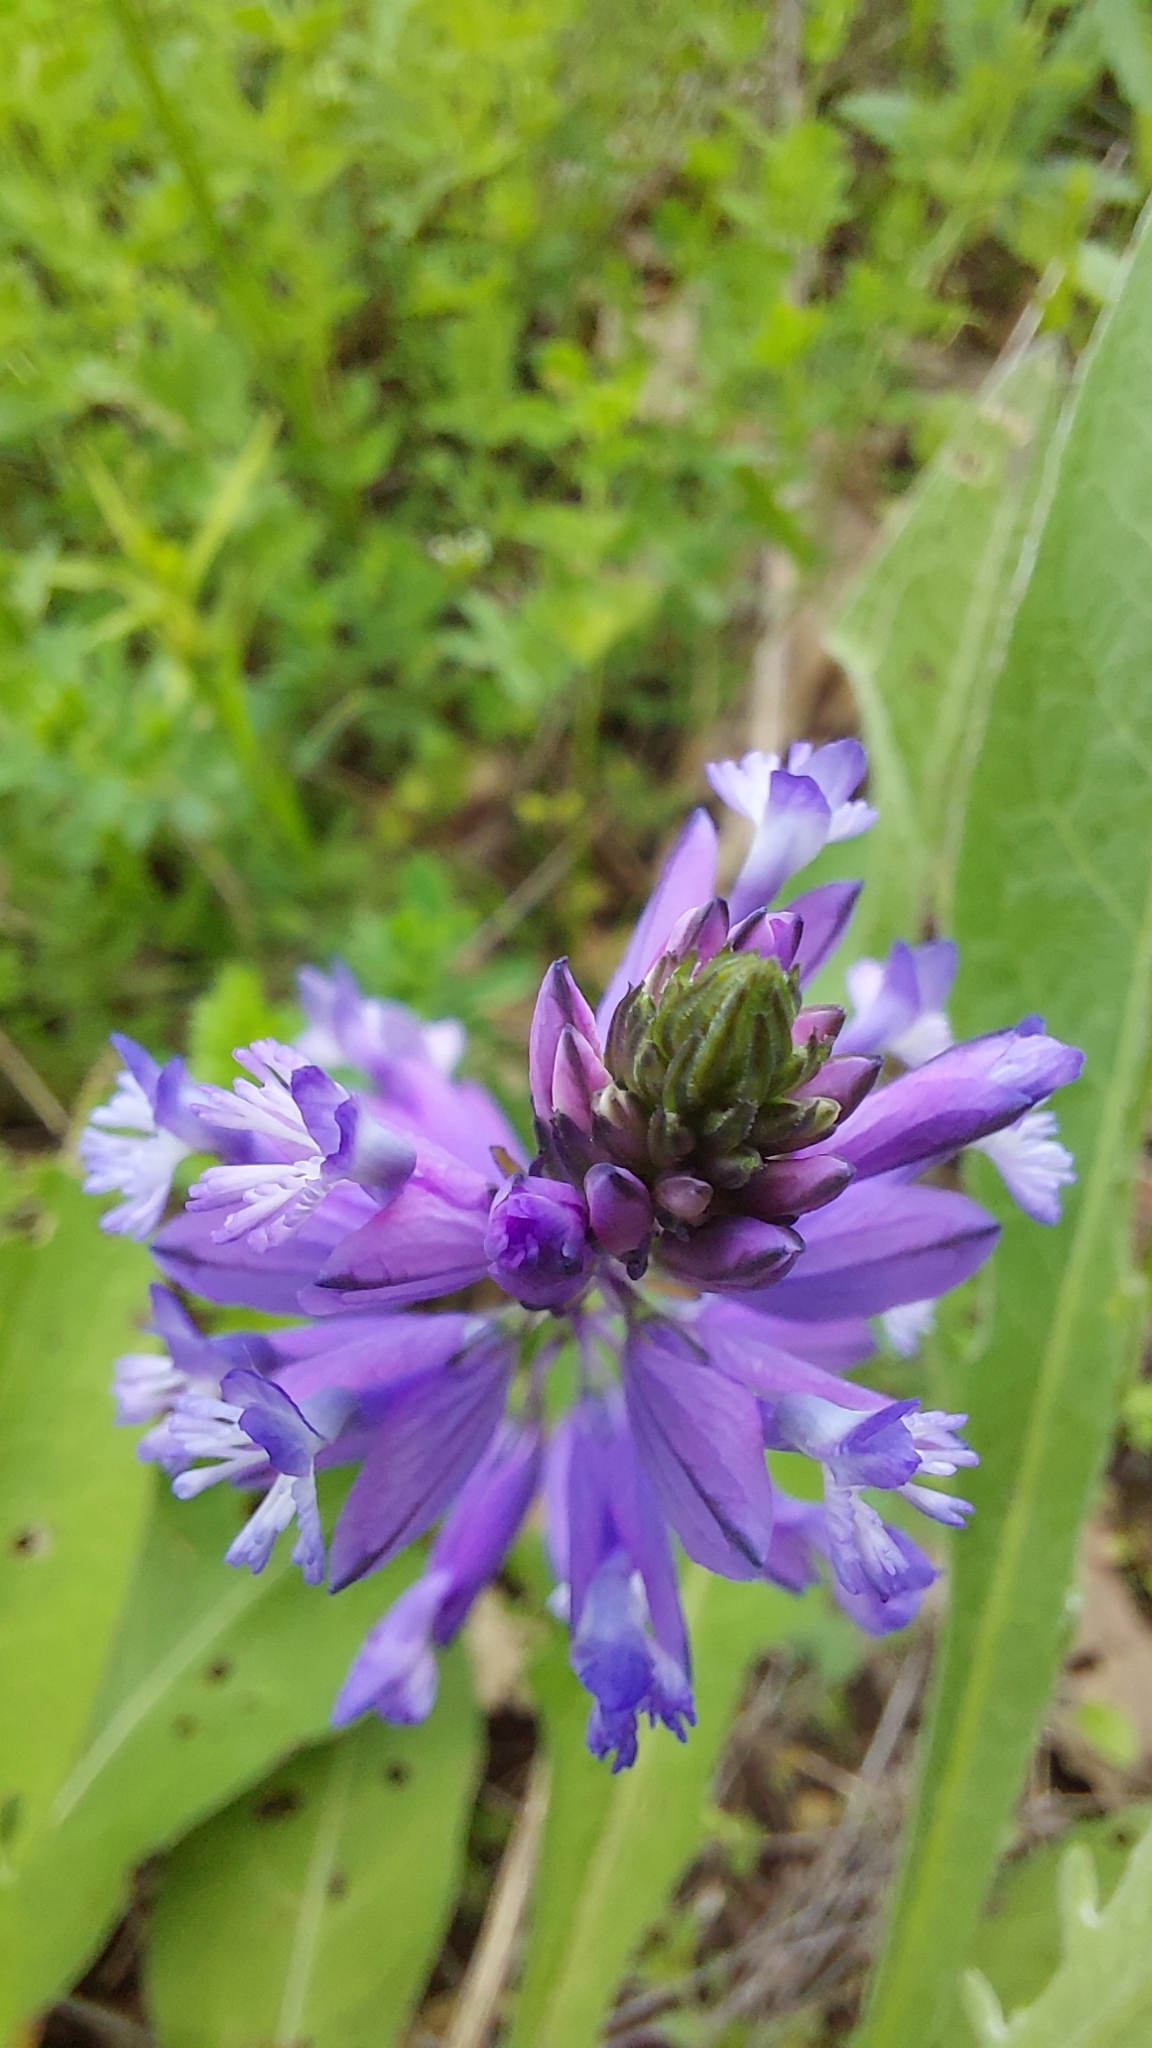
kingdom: Plantae
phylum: Tracheophyta
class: Magnoliopsida
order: Fabales
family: Polygalaceae
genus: Polygala
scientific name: Polygala major
